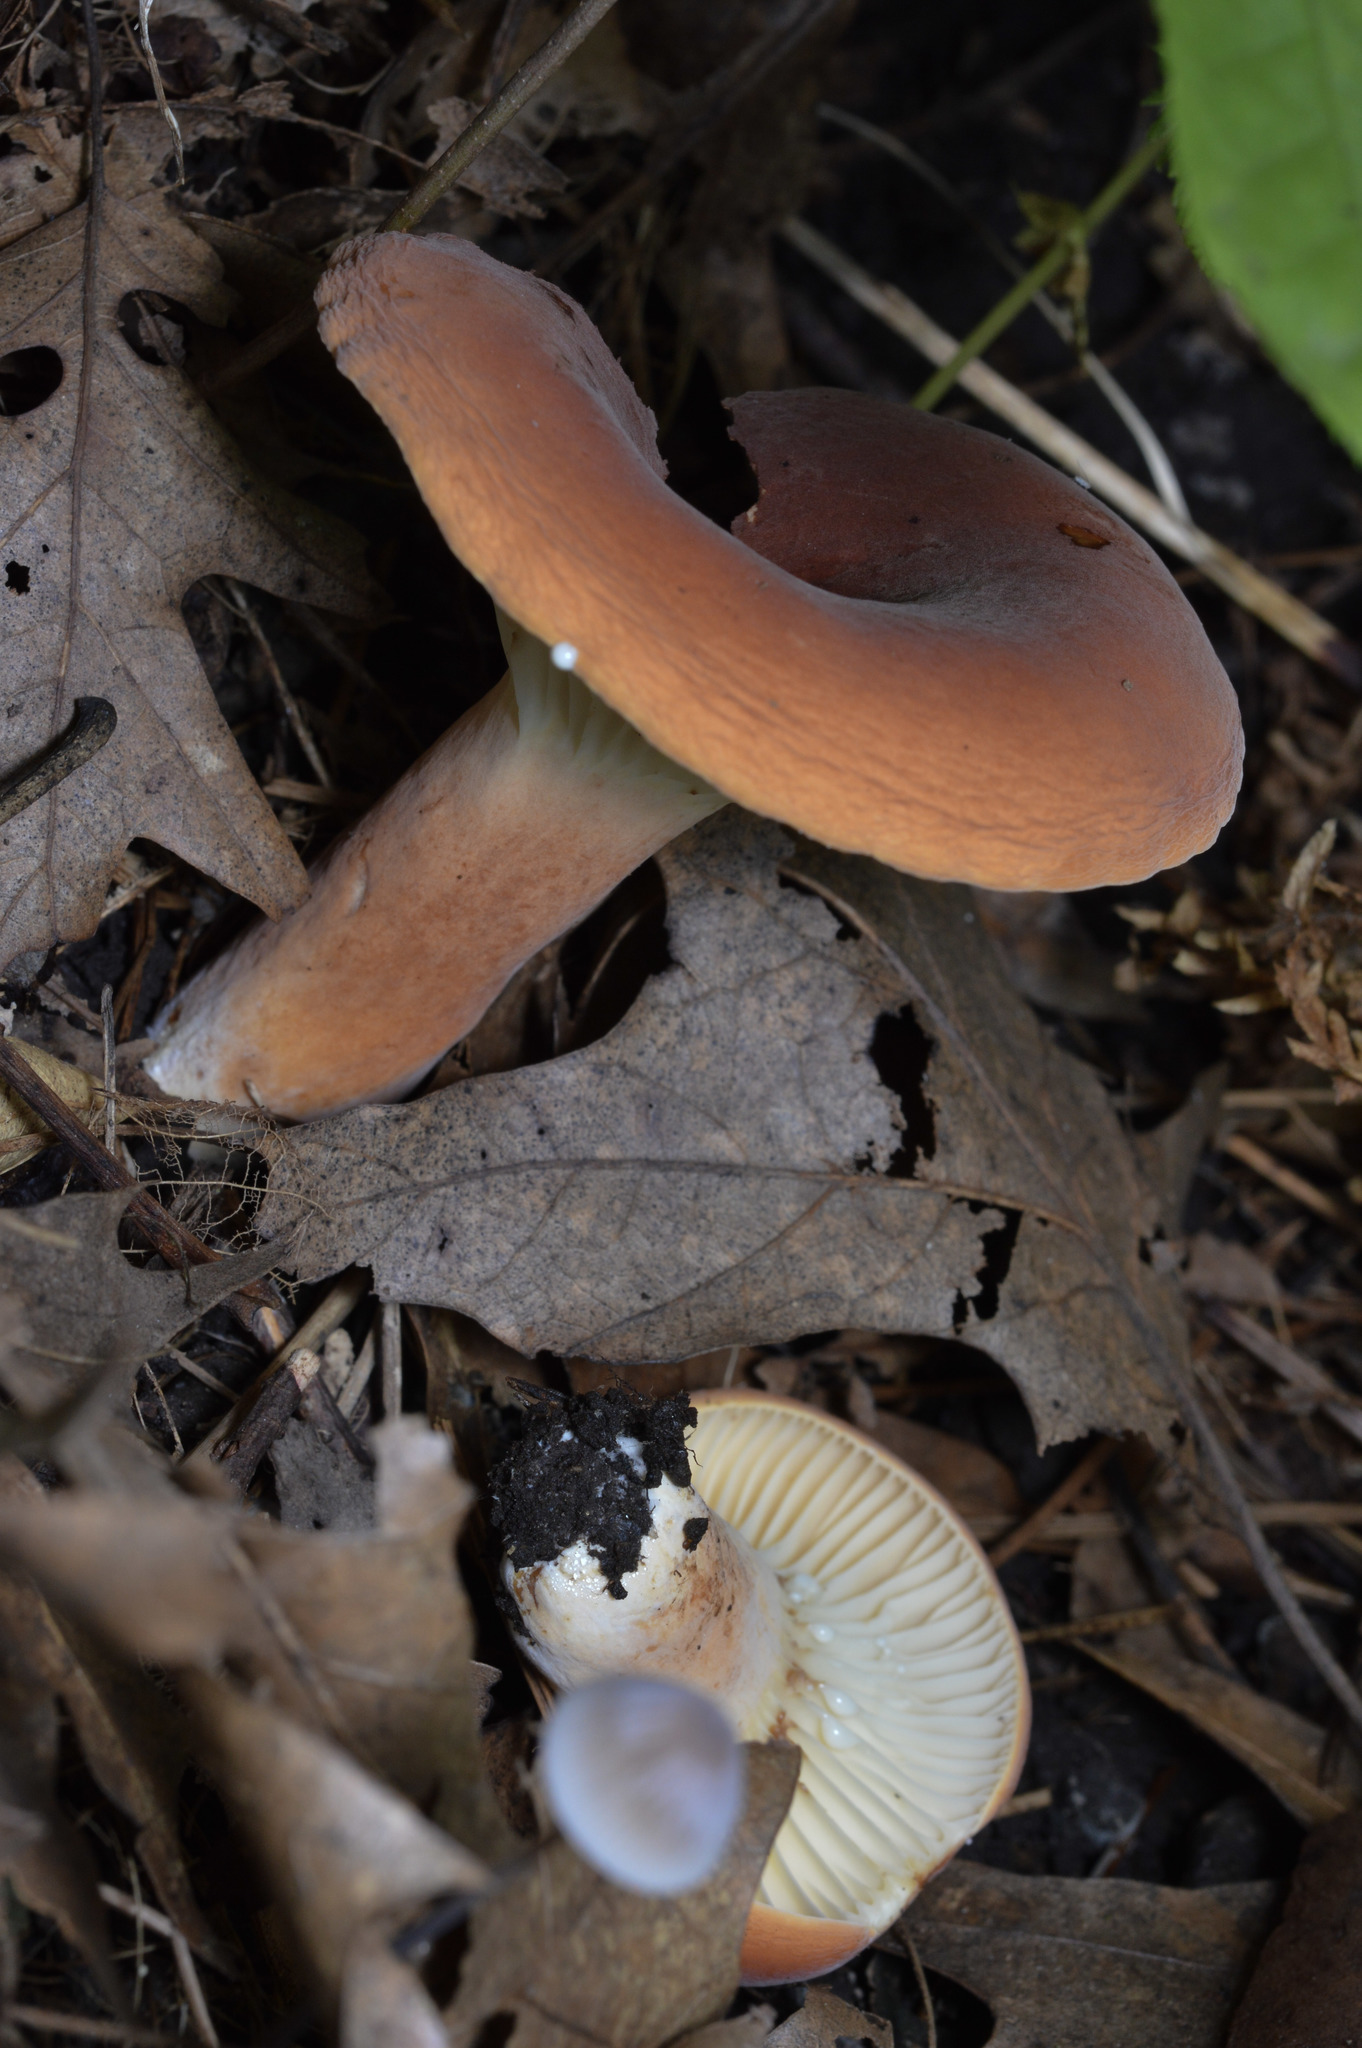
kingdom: Fungi
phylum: Basidiomycota
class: Agaricomycetes
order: Russulales
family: Russulaceae
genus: Lactarius
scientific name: Lactarius hygrophoroides
